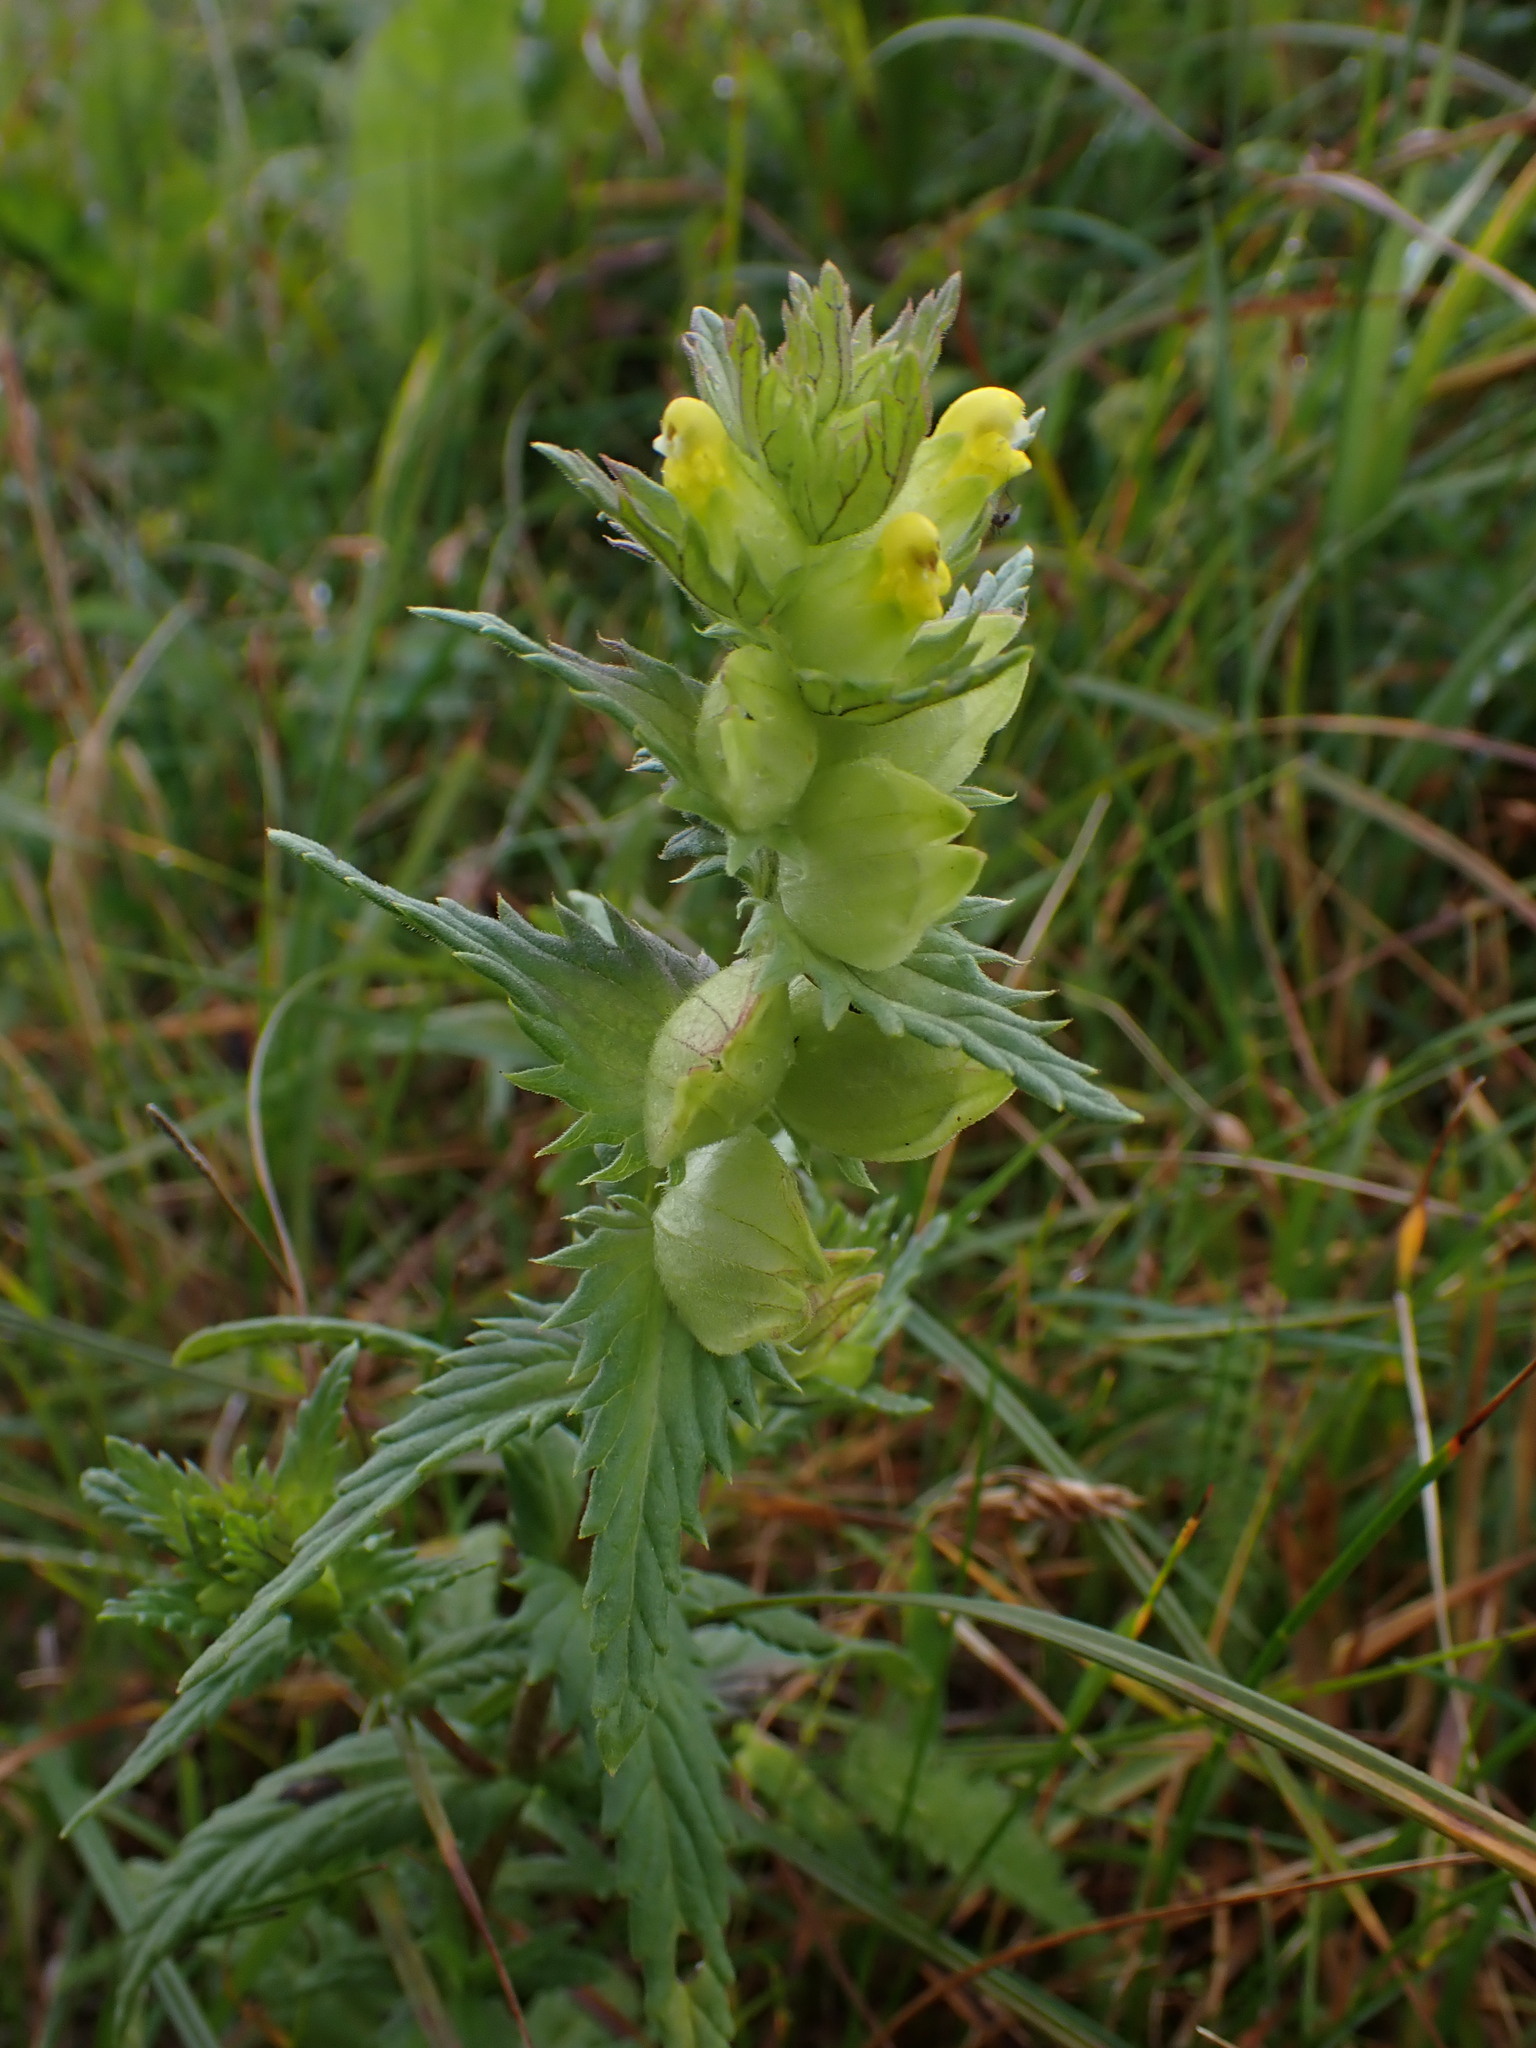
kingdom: Plantae
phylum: Tracheophyta
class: Magnoliopsida
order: Lamiales
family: Orobanchaceae
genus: Rhinanthus
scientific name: Rhinanthus minor
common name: Yellow-rattle
